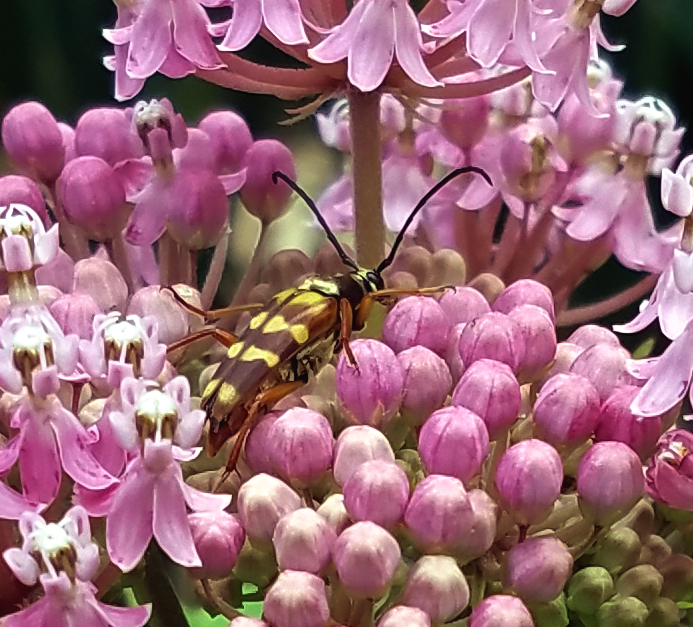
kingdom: Animalia
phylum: Arthropoda
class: Insecta
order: Coleoptera
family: Cerambycidae
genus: Typocerus
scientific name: Typocerus velutinus
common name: Banded longhorn beetle
